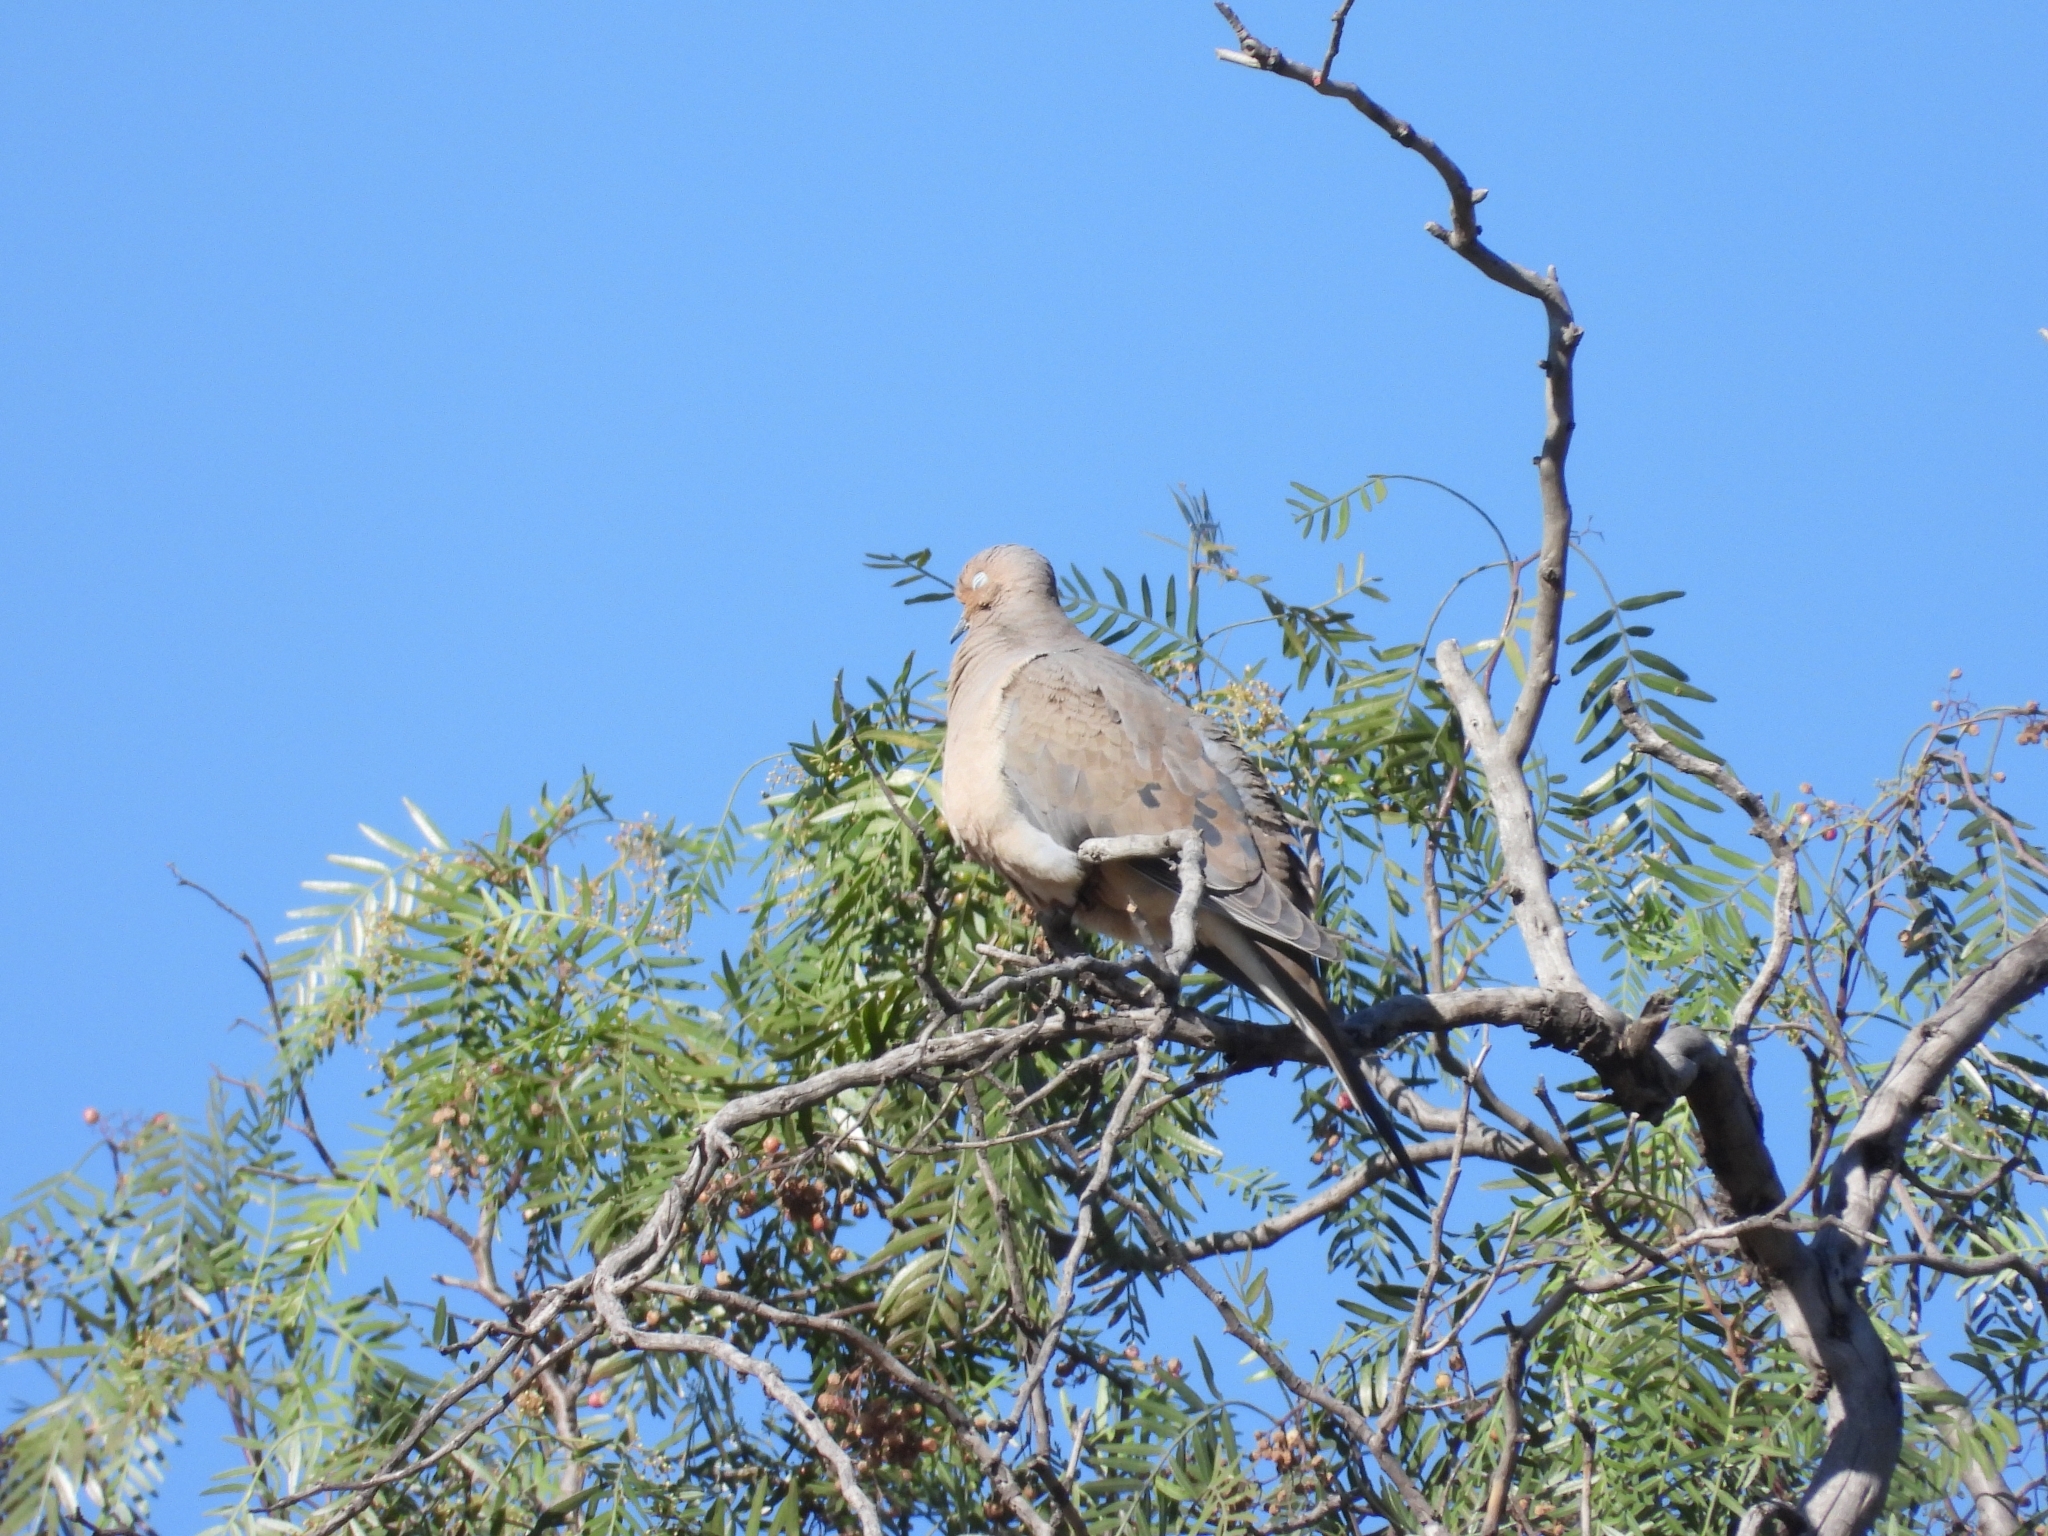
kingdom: Animalia
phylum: Chordata
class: Aves
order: Columbiformes
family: Columbidae
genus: Zenaida
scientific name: Zenaida macroura
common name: Mourning dove
